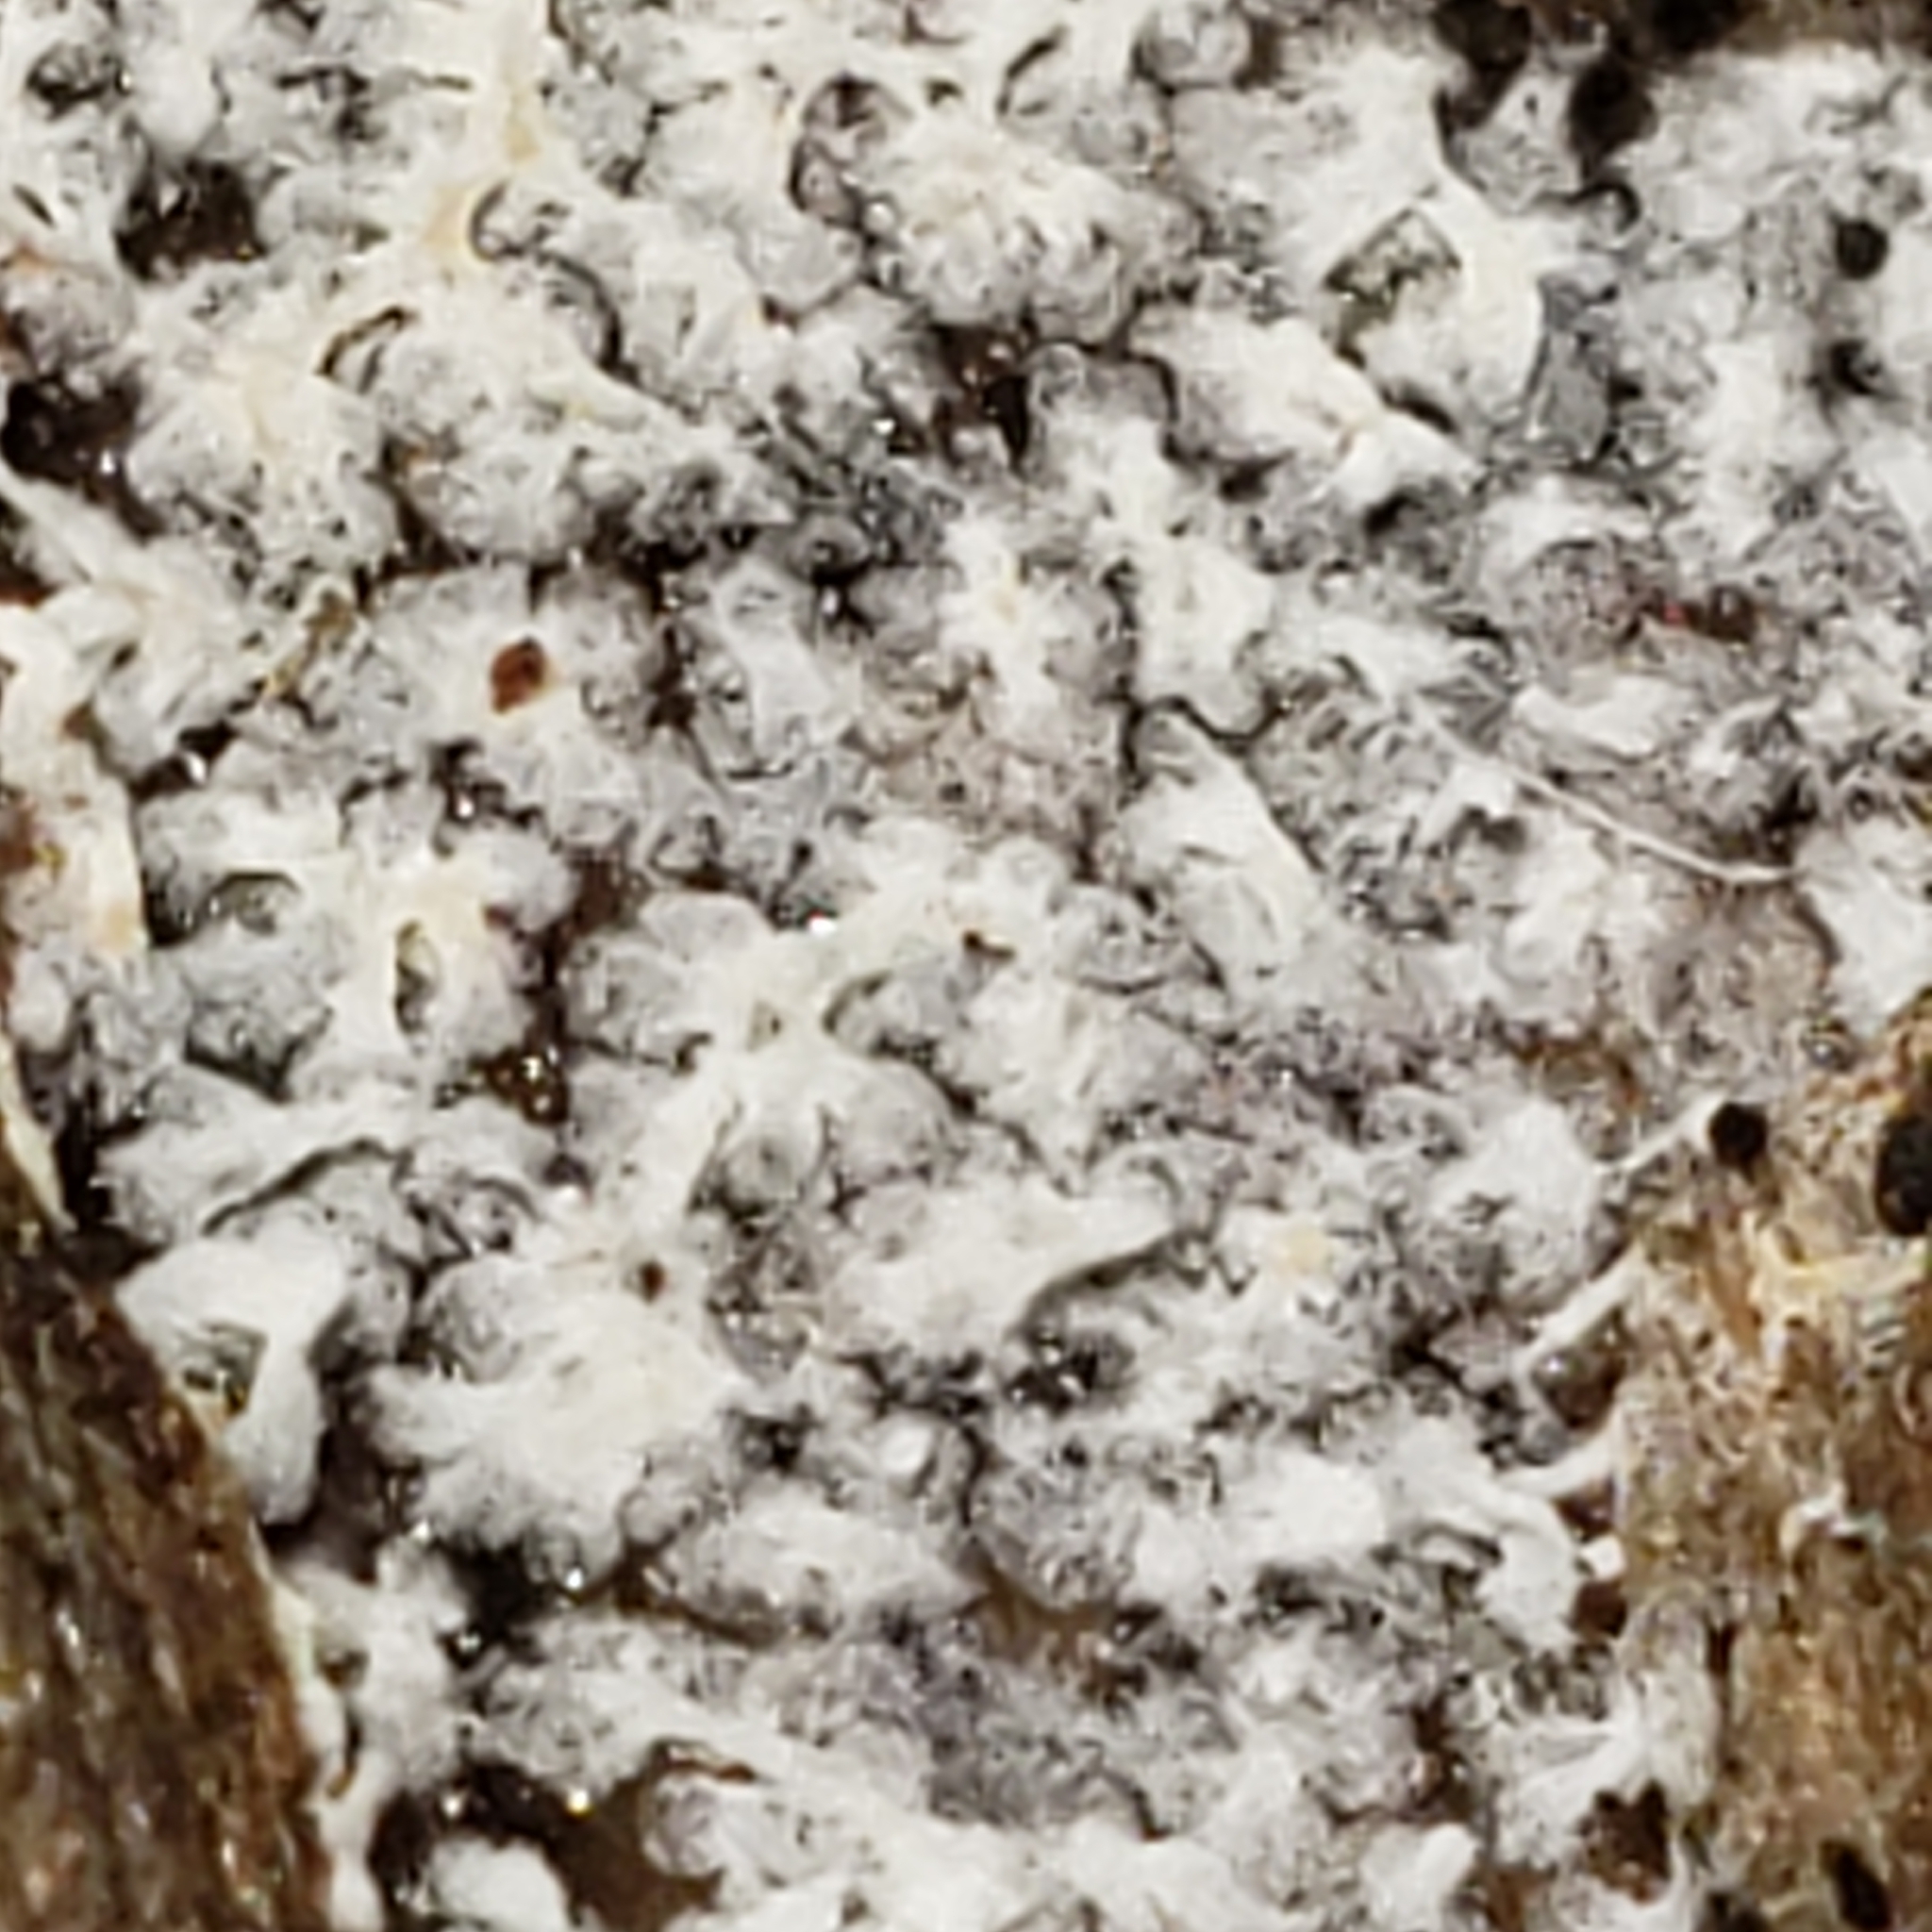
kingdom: Protozoa
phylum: Mycetozoa
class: Protosteliomycetes
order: Ceratiomyxales
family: Ceratiomyxaceae
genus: Ceratiomyxa
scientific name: Ceratiomyxa fruticulosa
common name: Honeycomb coral slime mold
